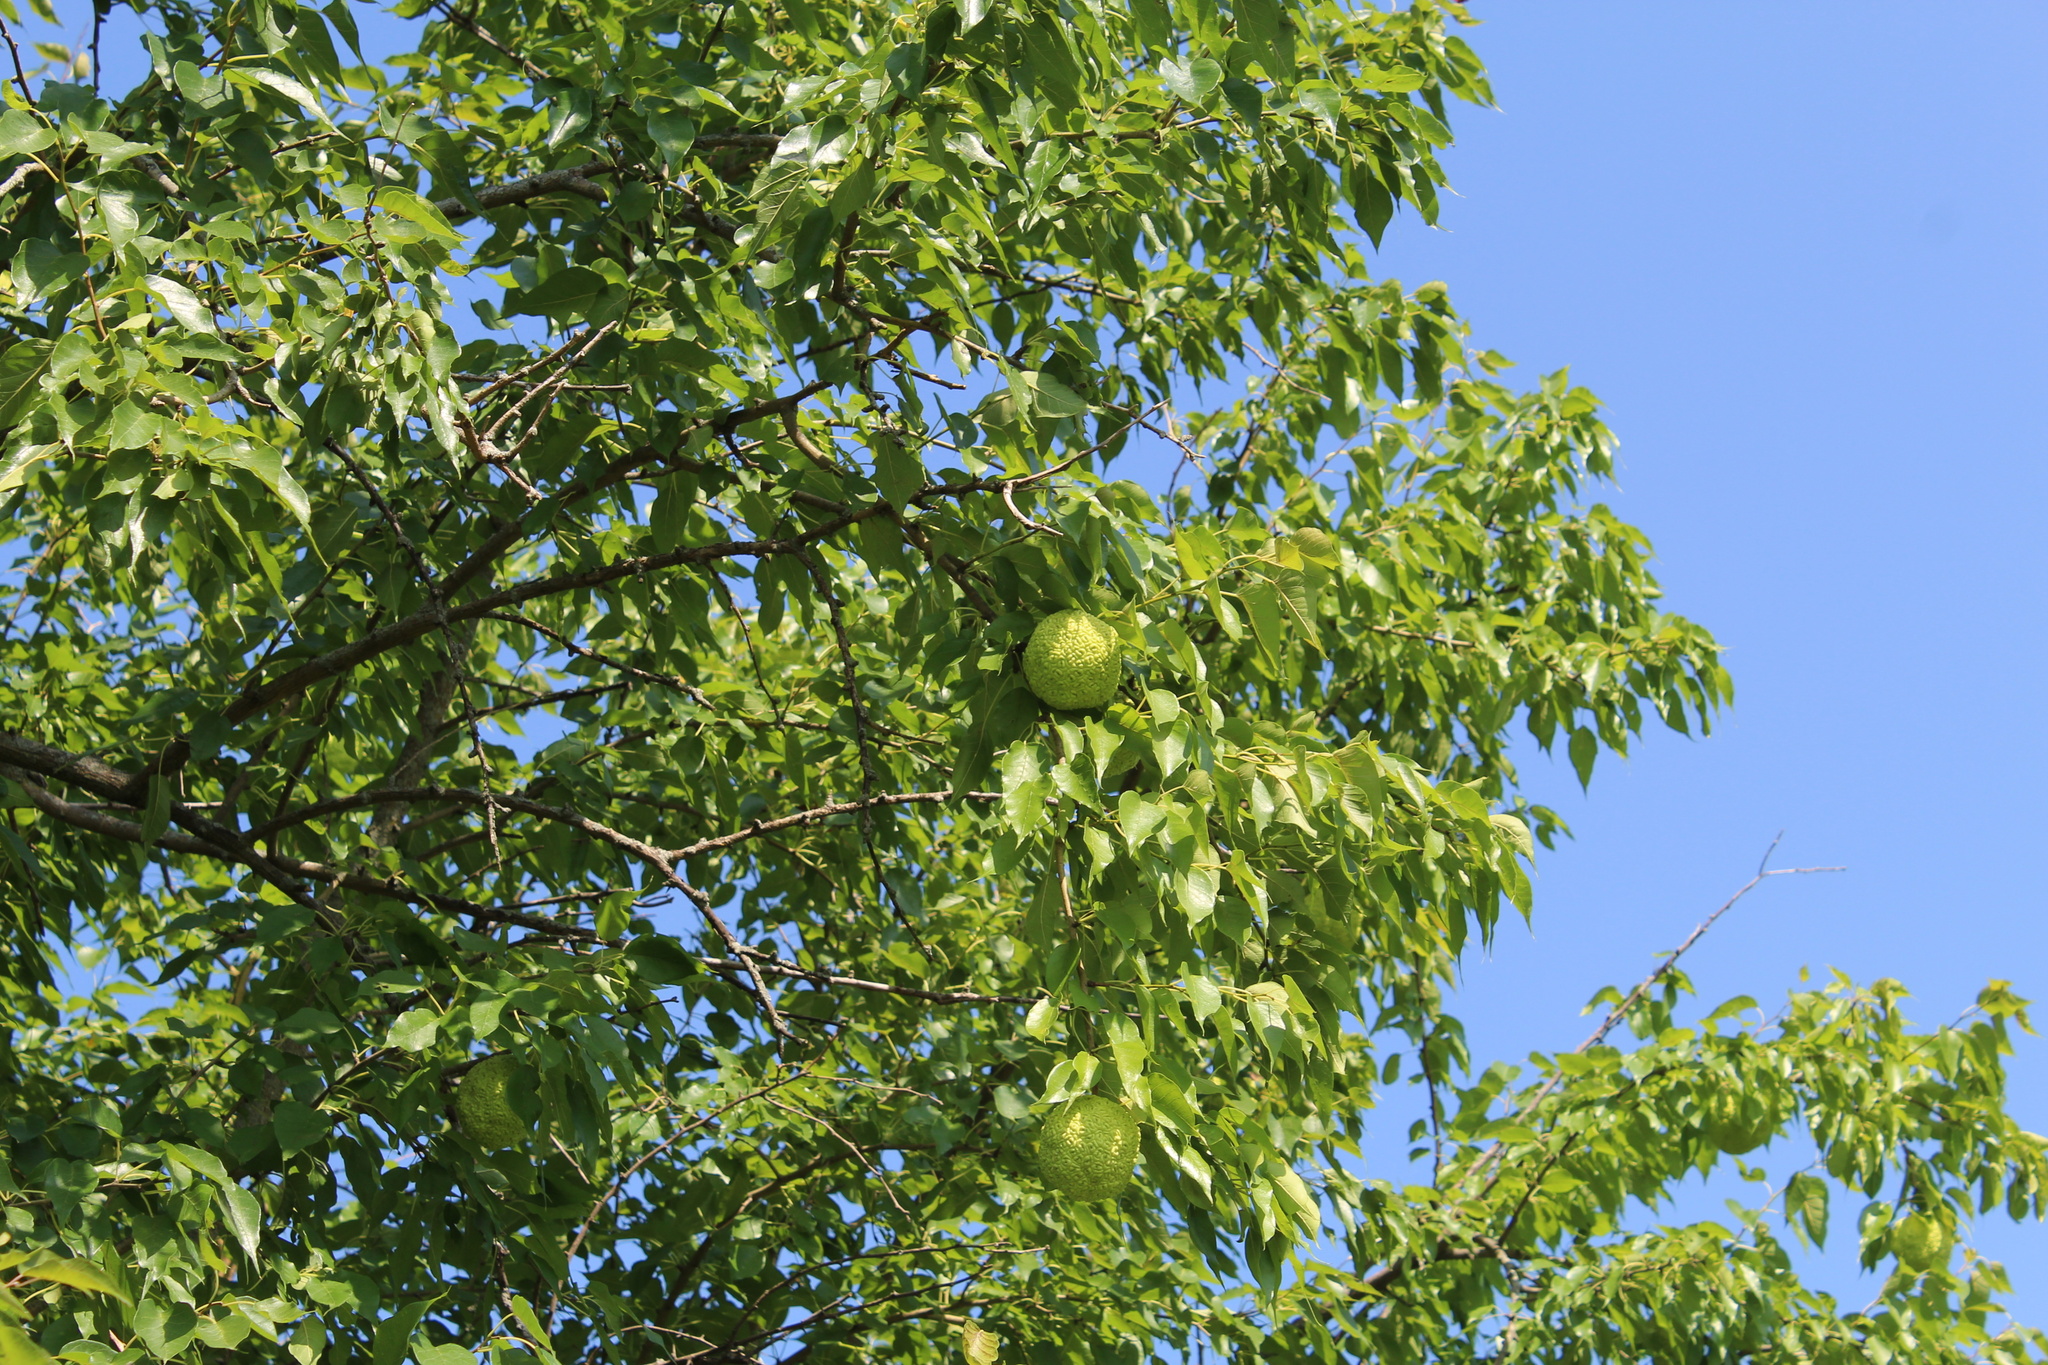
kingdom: Plantae
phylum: Tracheophyta
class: Magnoliopsida
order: Rosales
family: Moraceae
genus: Maclura
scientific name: Maclura pomifera
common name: Osage-orange
